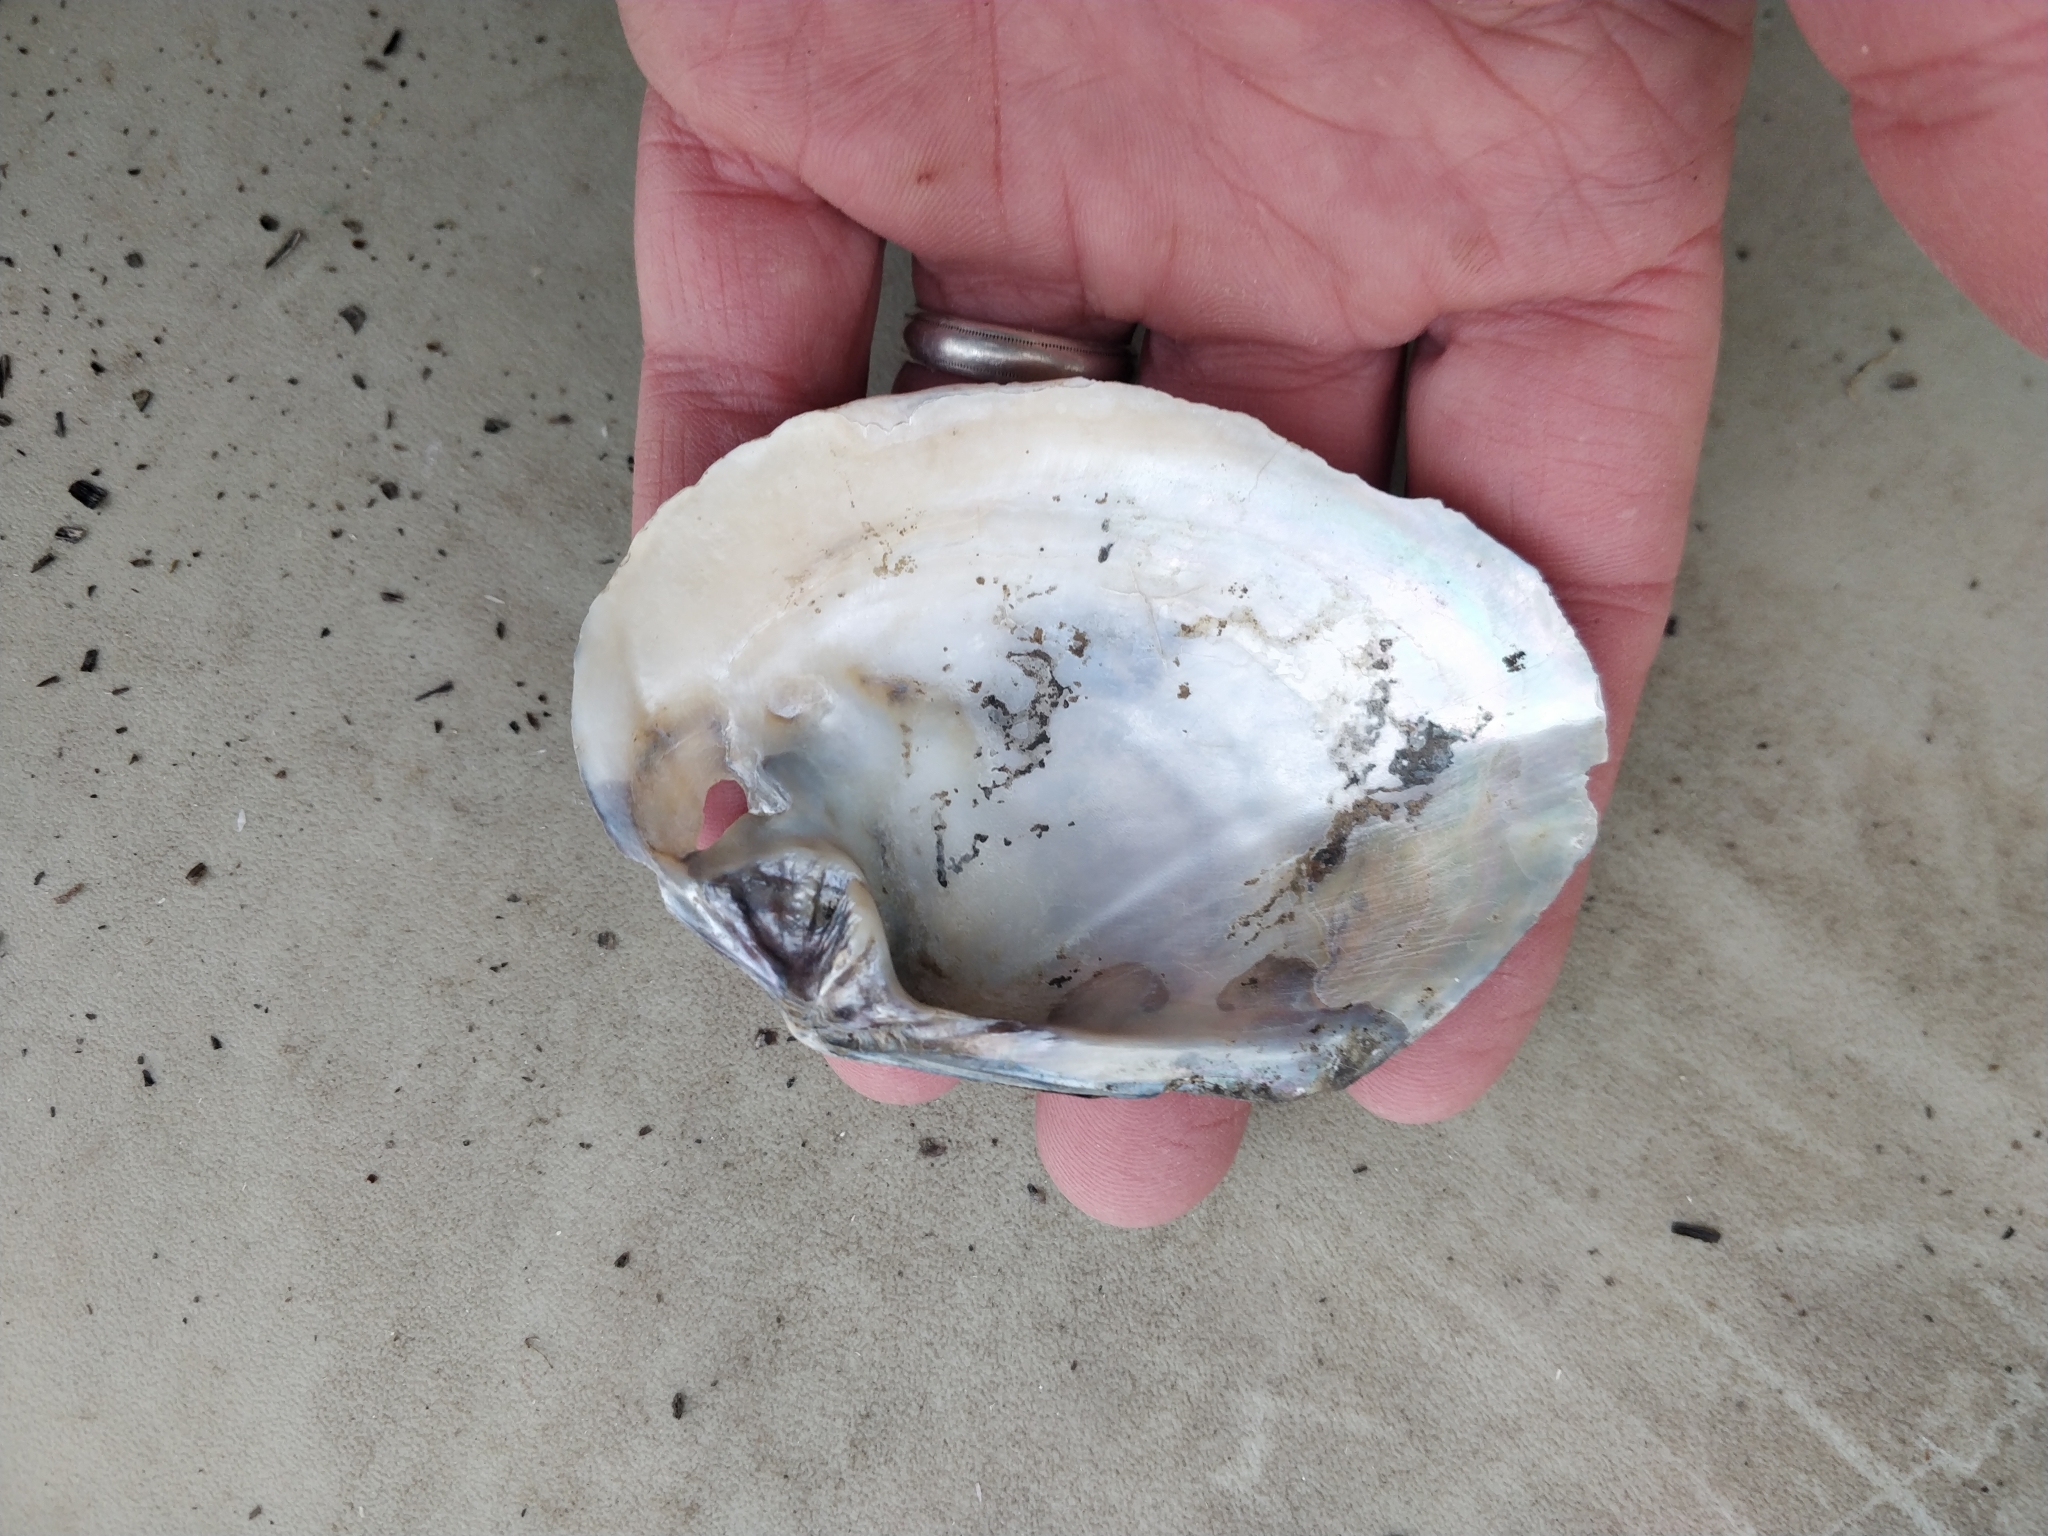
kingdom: Animalia
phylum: Mollusca
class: Bivalvia
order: Unionida
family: Unionidae
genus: Lasmigona
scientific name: Lasmigona complanata
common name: White heelsplitter
